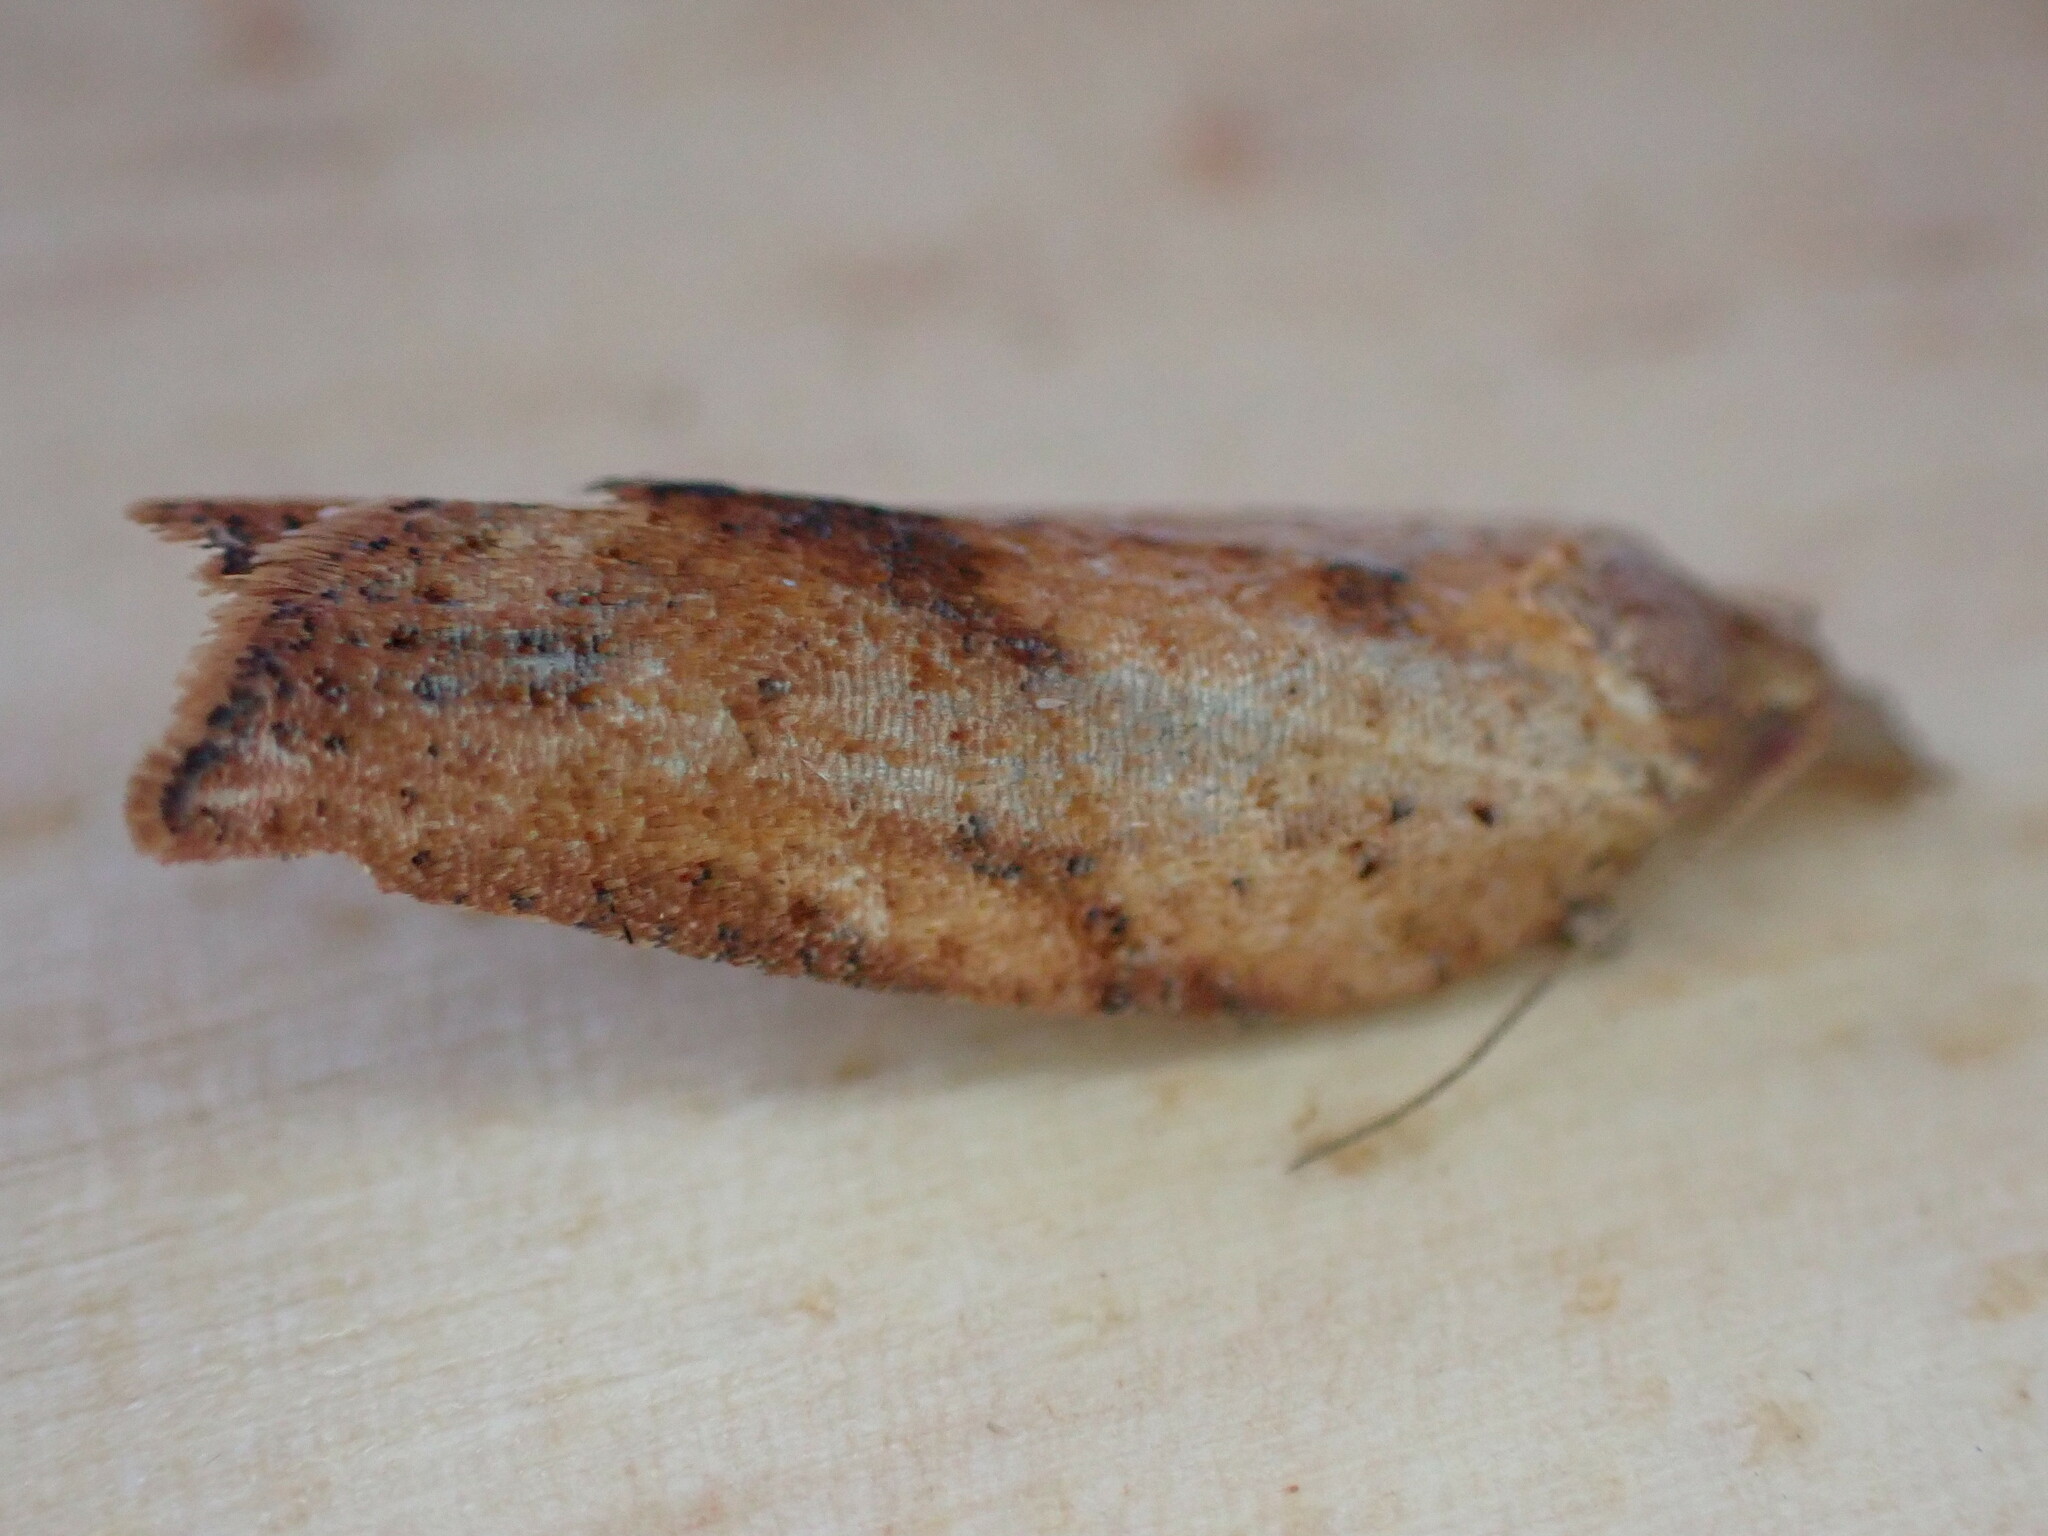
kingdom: Animalia
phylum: Arthropoda
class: Insecta
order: Lepidoptera
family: Tortricidae
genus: Epiphyas
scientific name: Epiphyas postvittana
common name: Light brown apple moth
